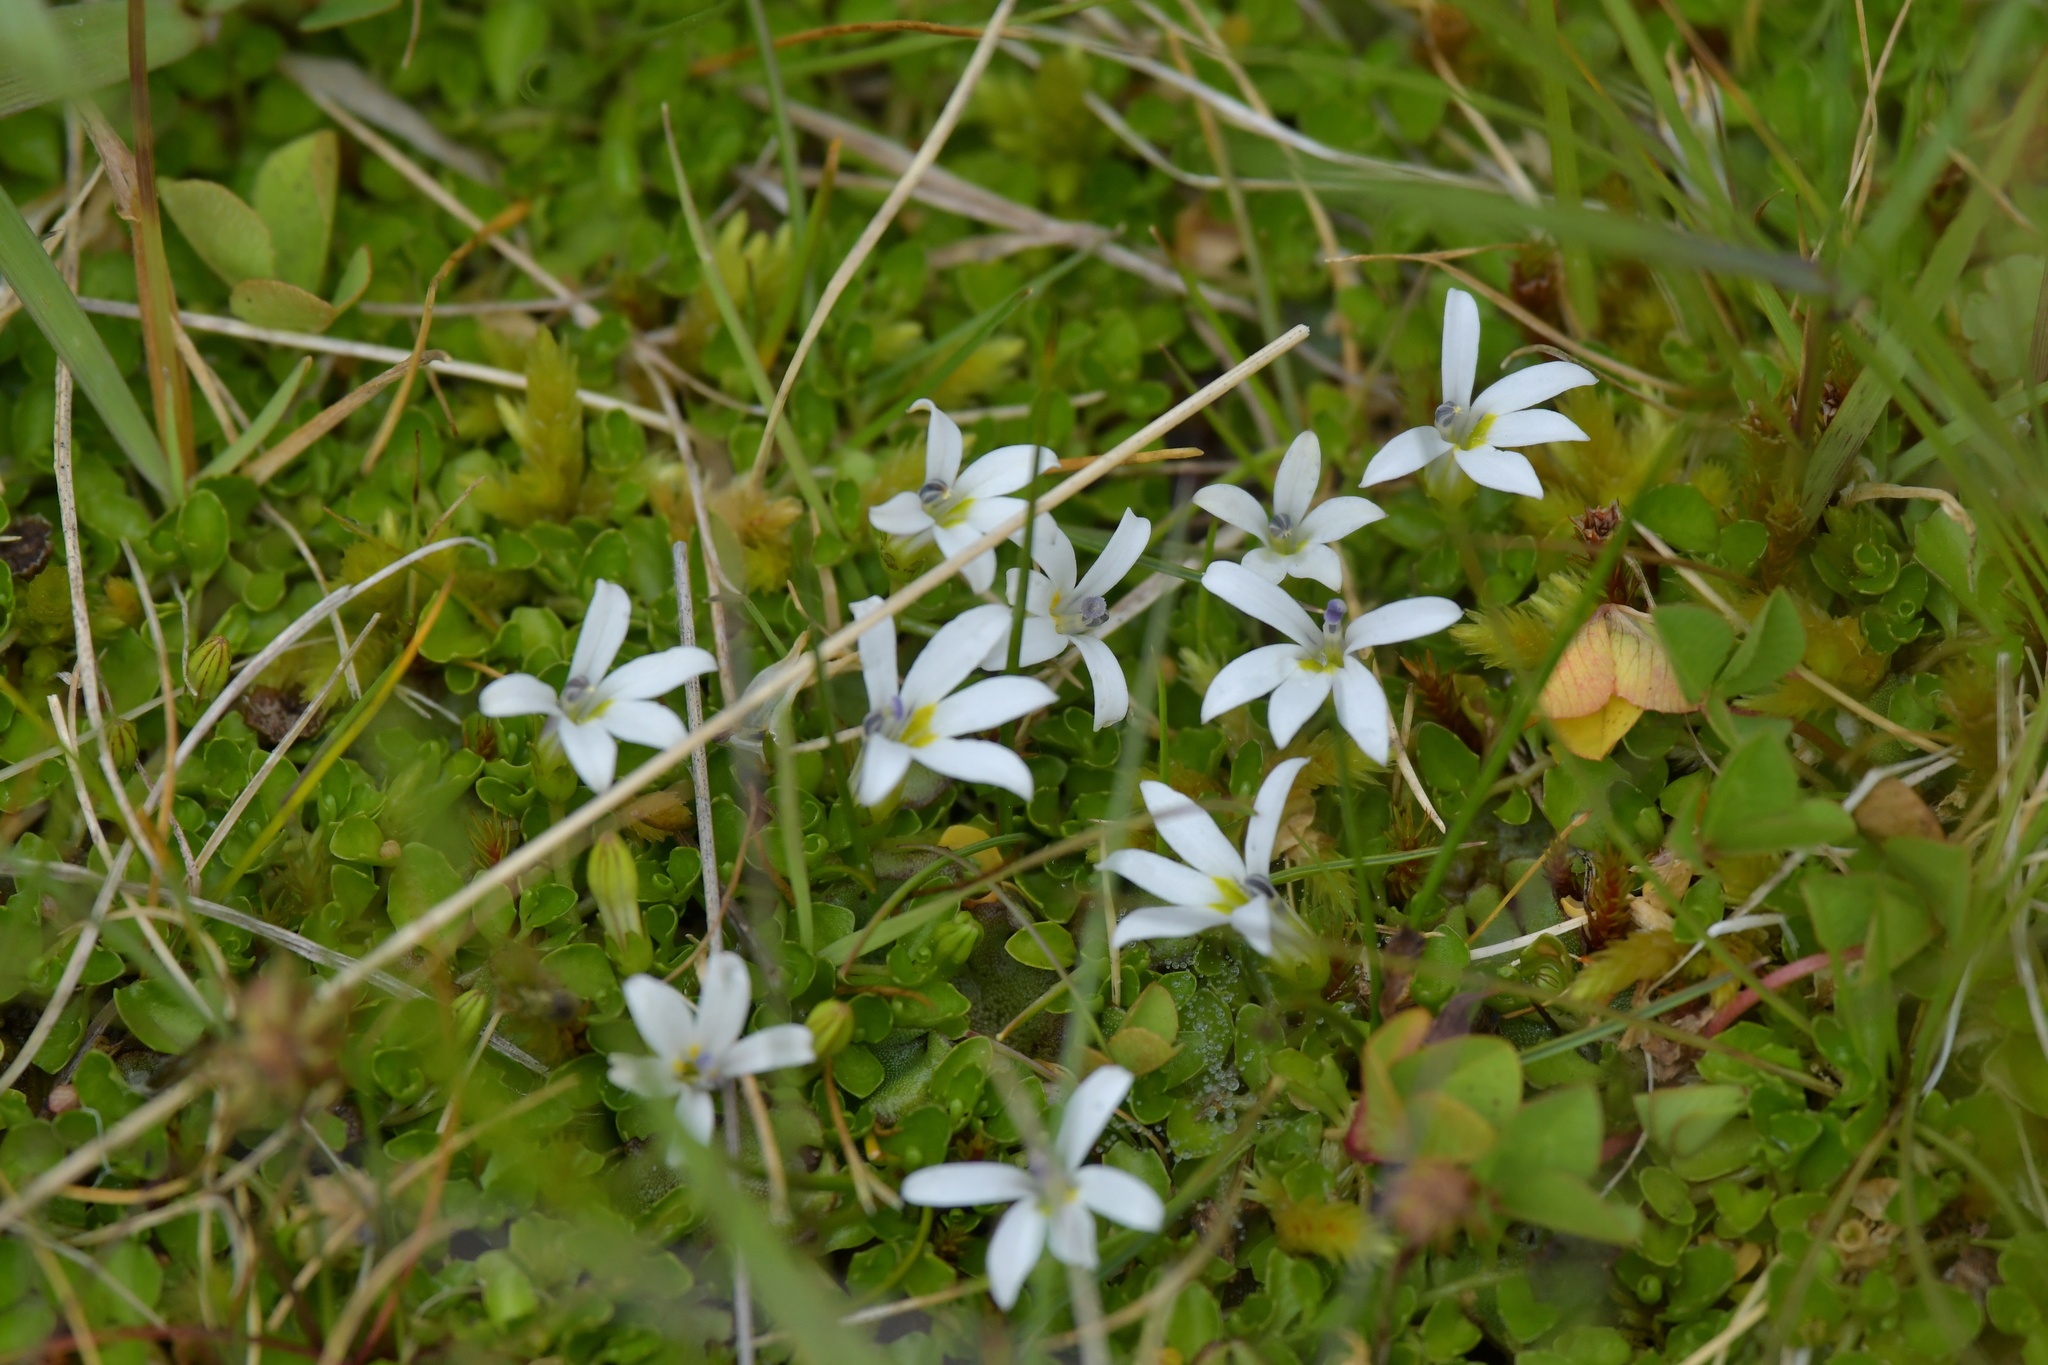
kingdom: Plantae
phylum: Tracheophyta
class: Magnoliopsida
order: Asterales
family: Campanulaceae
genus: Lobelia
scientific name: Lobelia angulata
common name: Lawn lobelia
